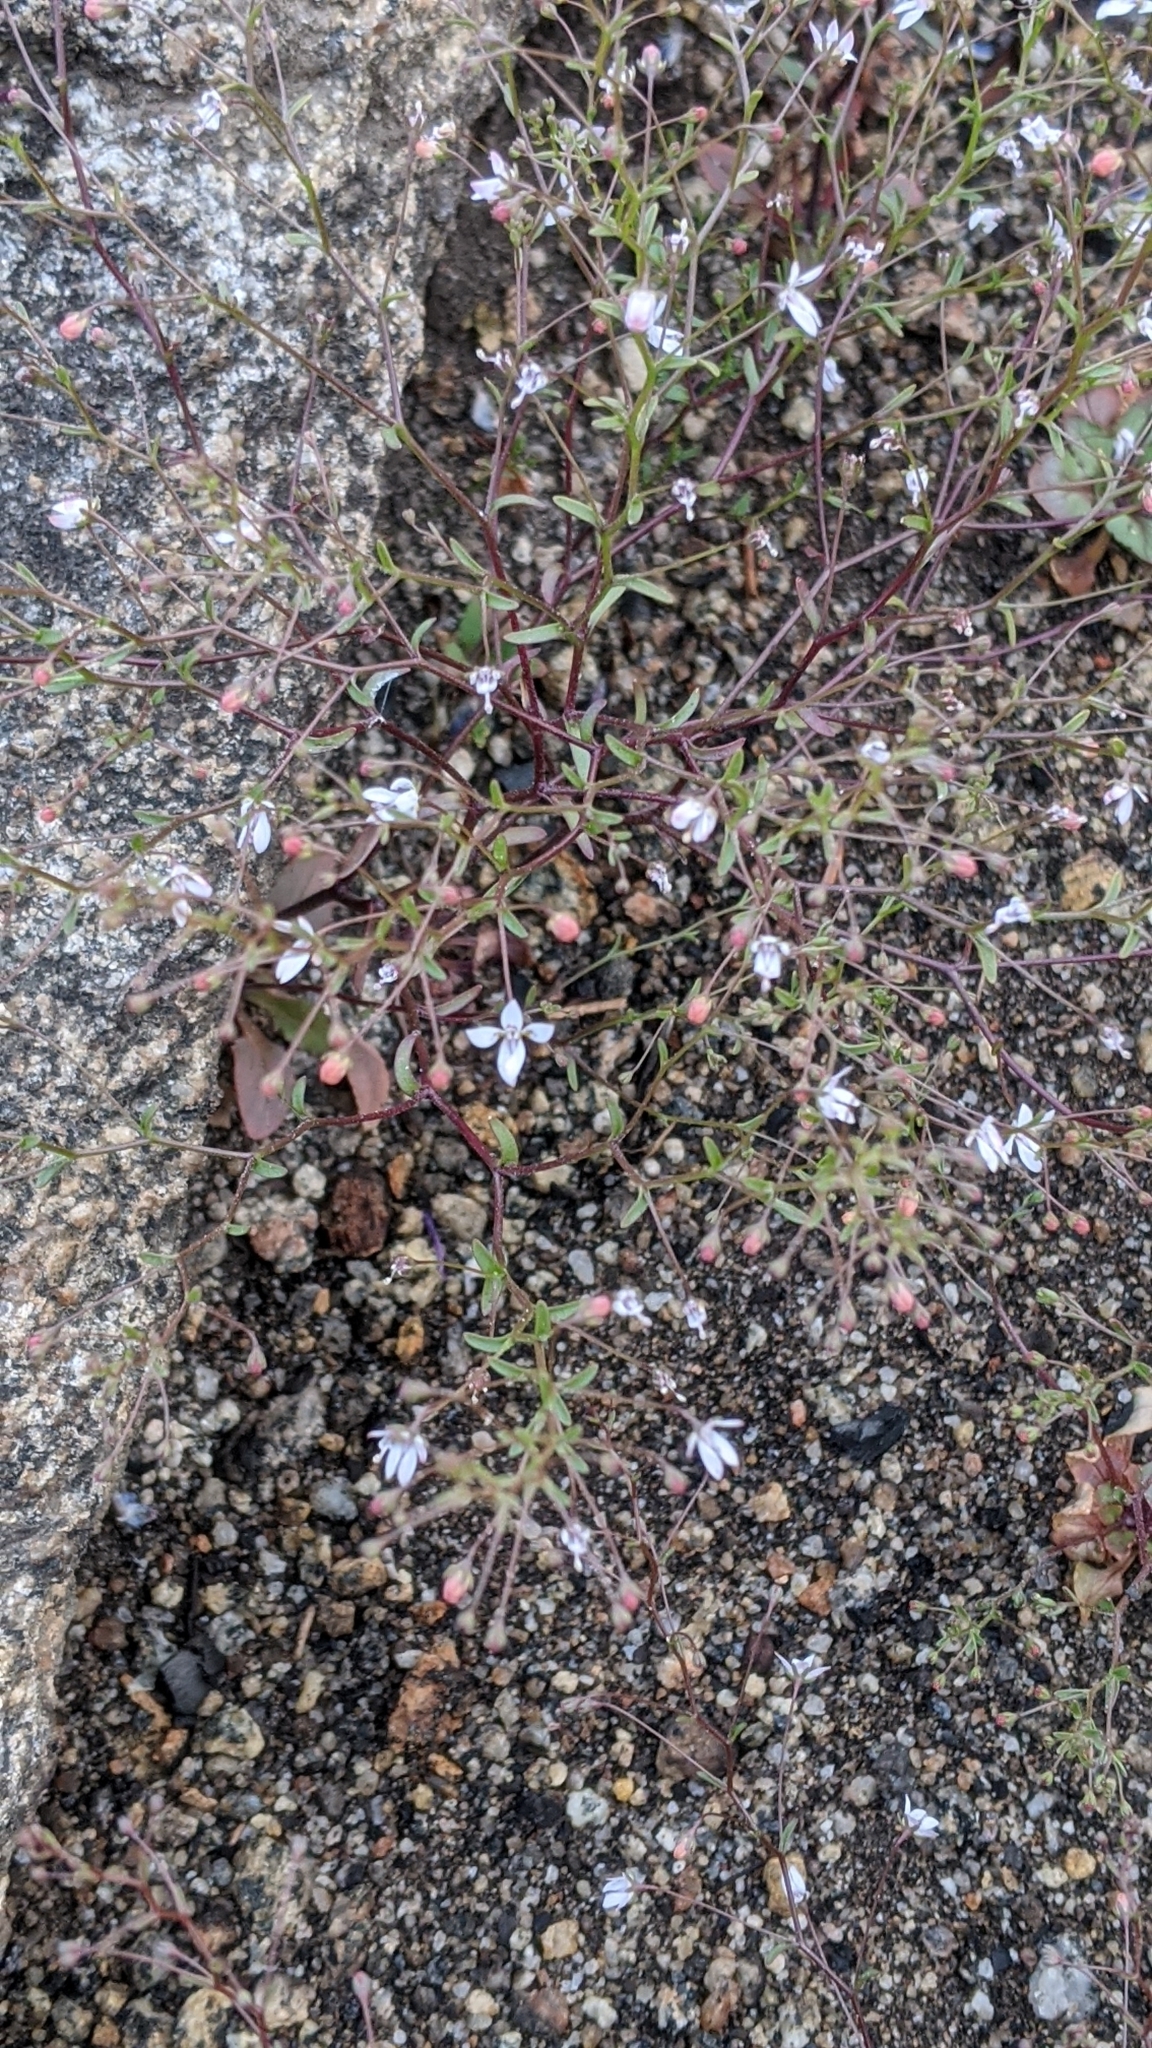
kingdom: Plantae
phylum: Tracheophyta
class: Magnoliopsida
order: Asterales
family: Campanulaceae
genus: Nemacladus
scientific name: Nemacladus interior
